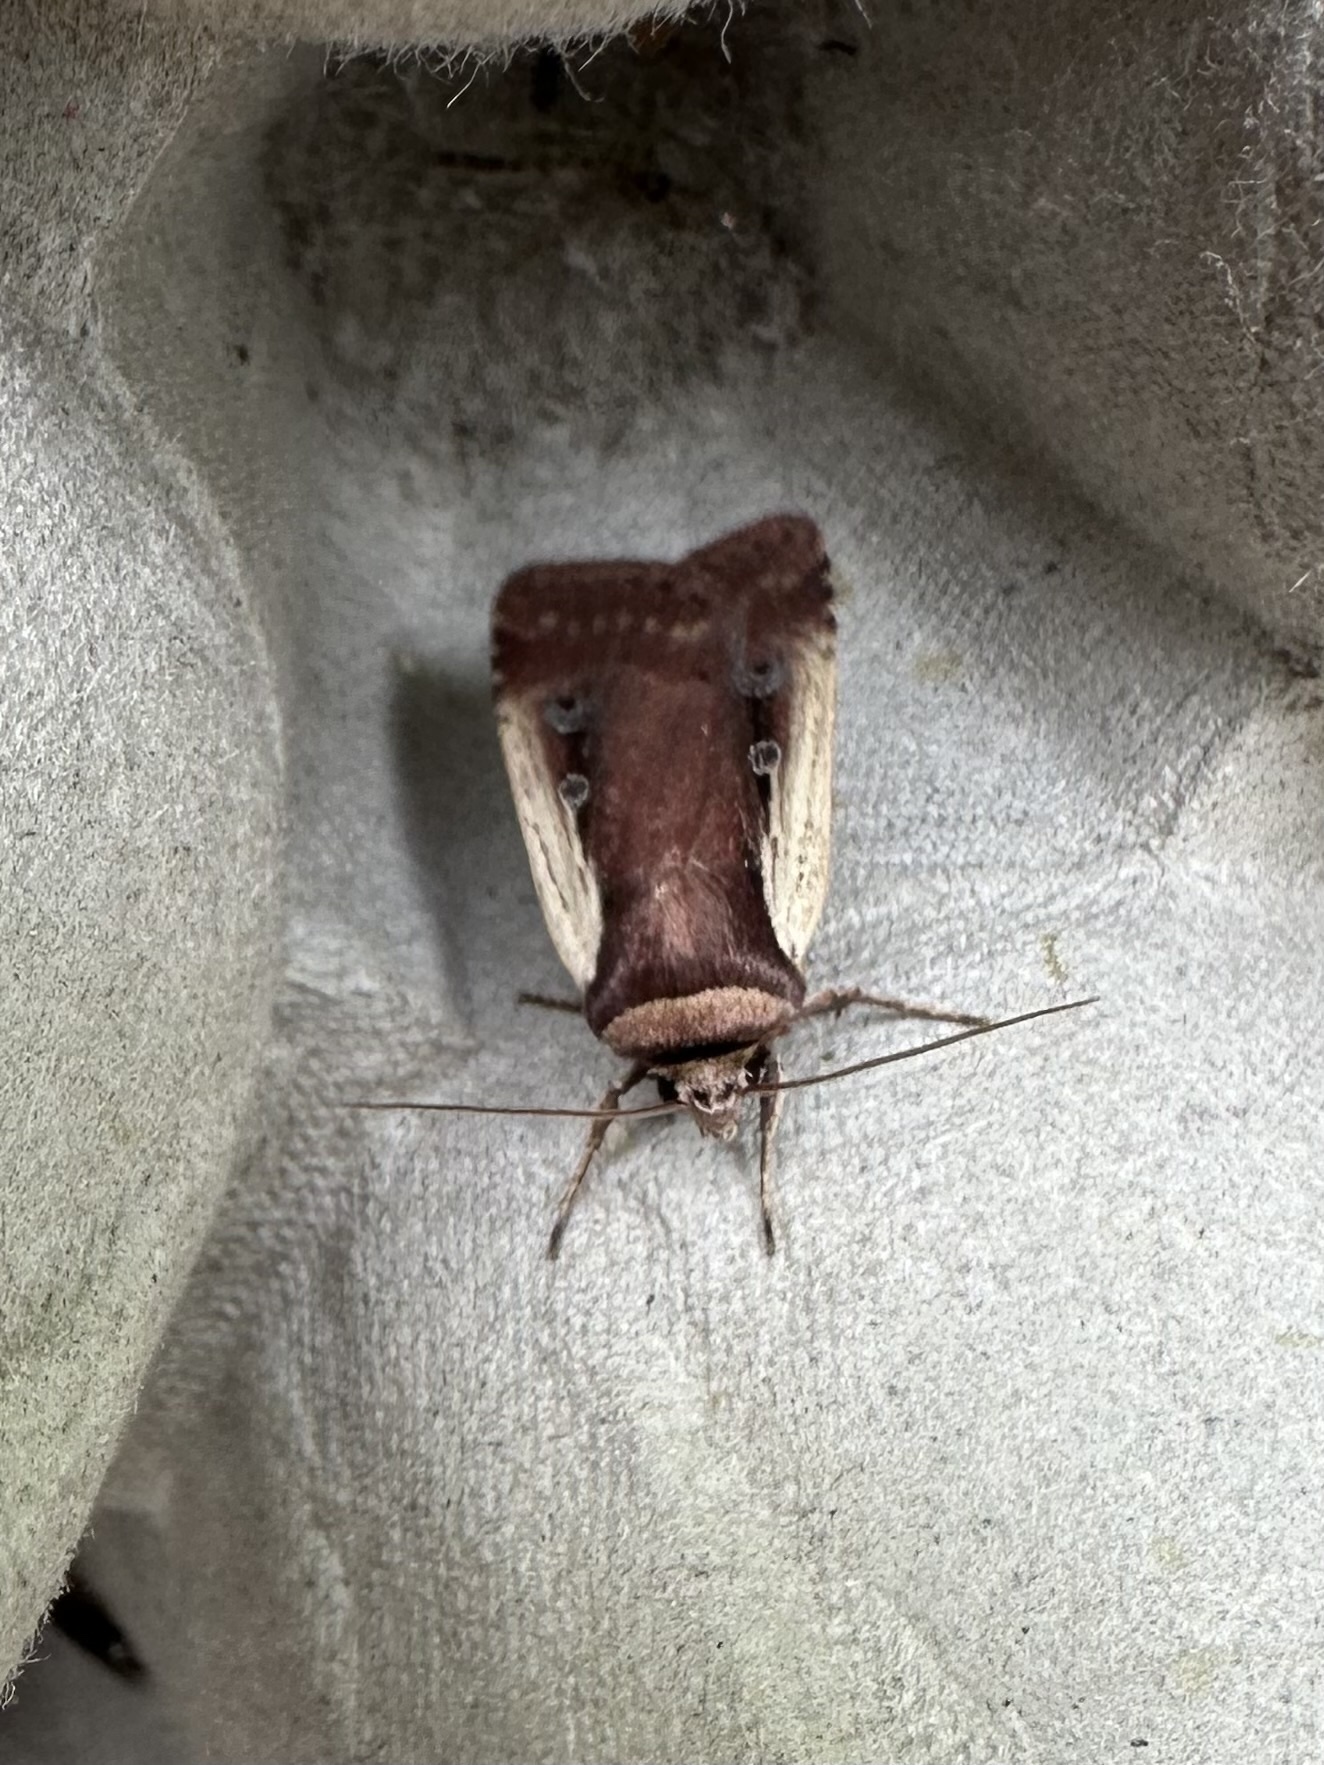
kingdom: Animalia
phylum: Arthropoda
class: Insecta
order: Lepidoptera
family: Noctuidae
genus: Ochropleura
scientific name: Ochropleura implecta
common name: Flame-shouldered dart
